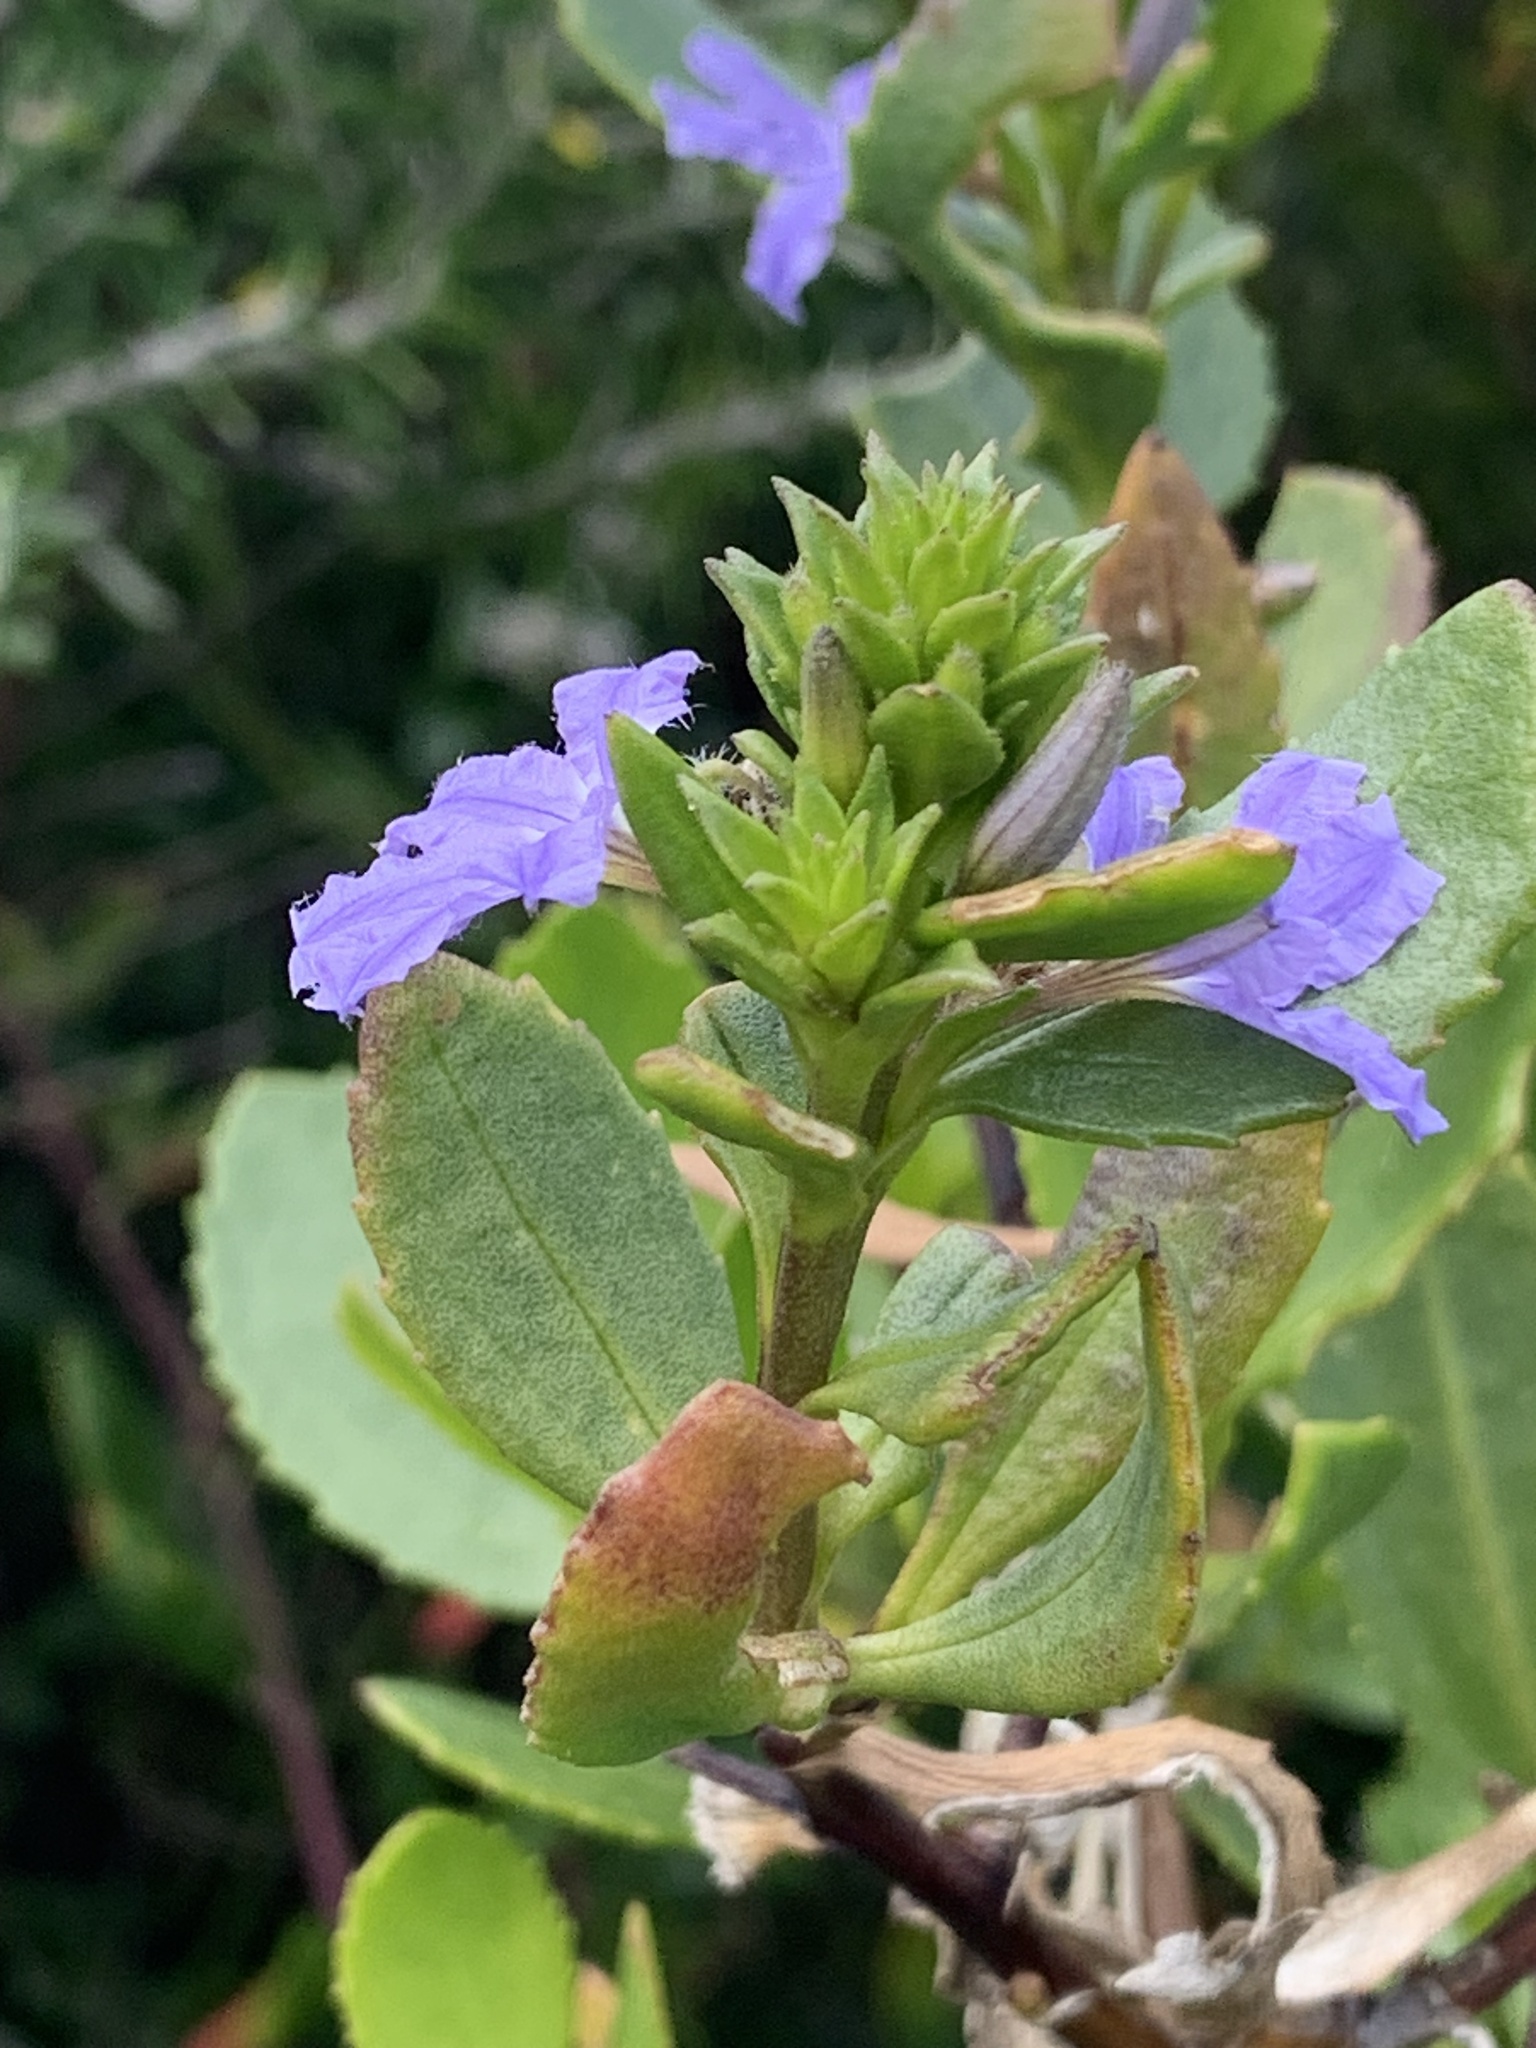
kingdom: Plantae
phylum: Tracheophyta
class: Magnoliopsida
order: Asterales
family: Goodeniaceae
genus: Scaevola
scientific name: Scaevola crassifolia
